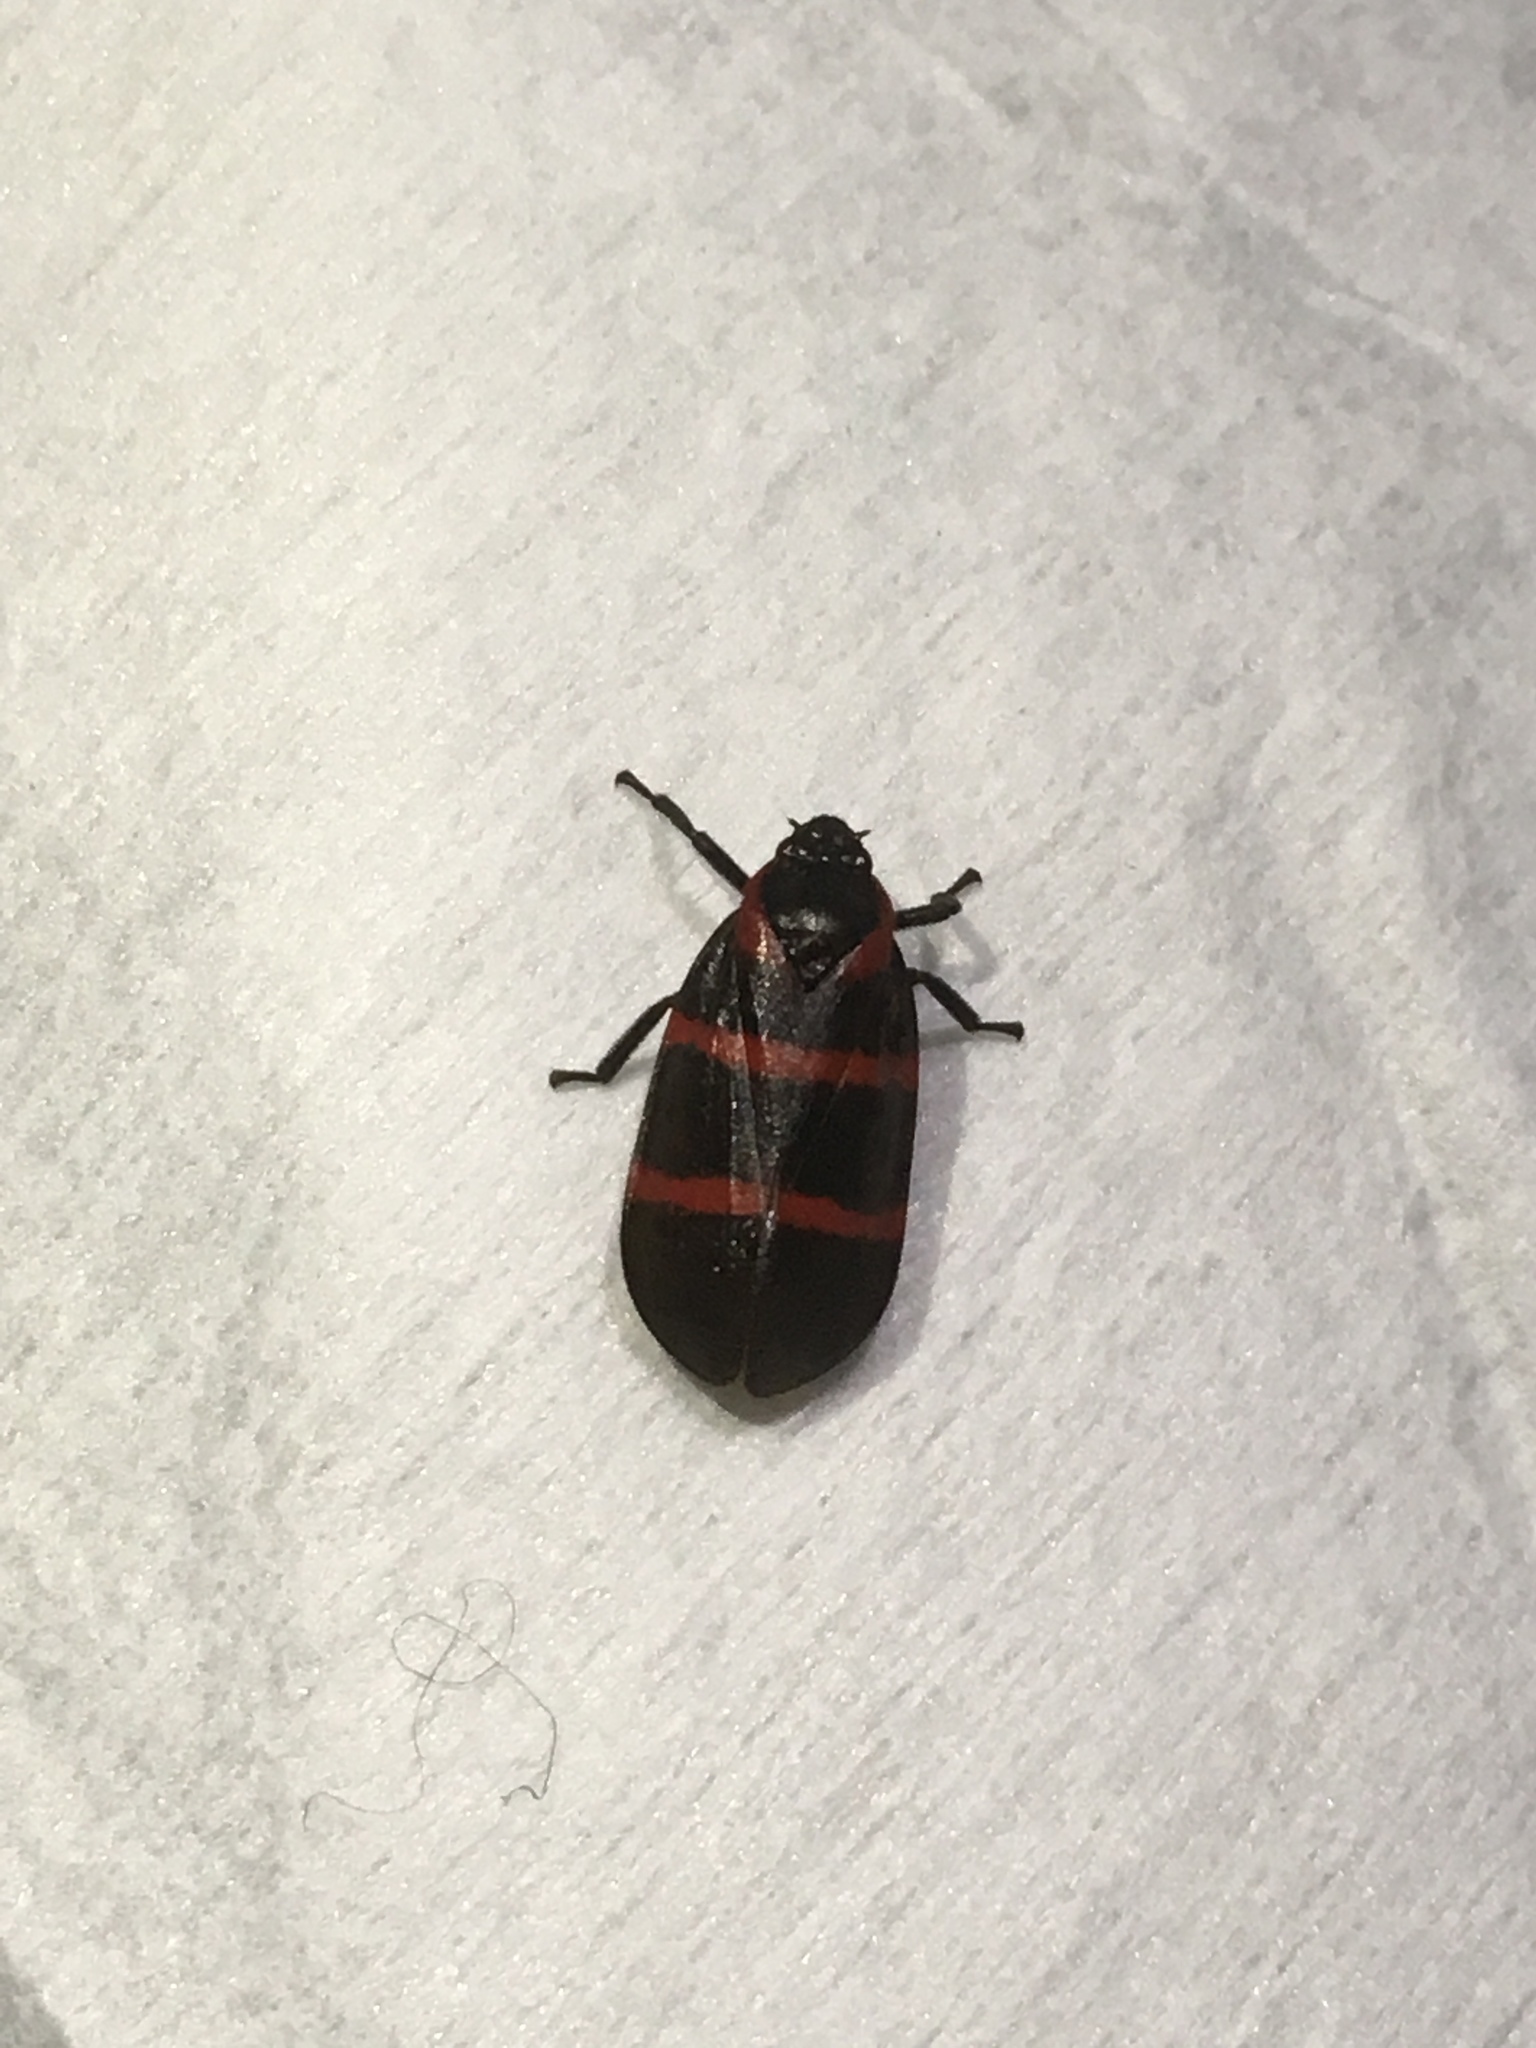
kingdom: Animalia
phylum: Arthropoda
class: Insecta
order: Hemiptera
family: Cercopidae
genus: Huaina
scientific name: Huaina inca
